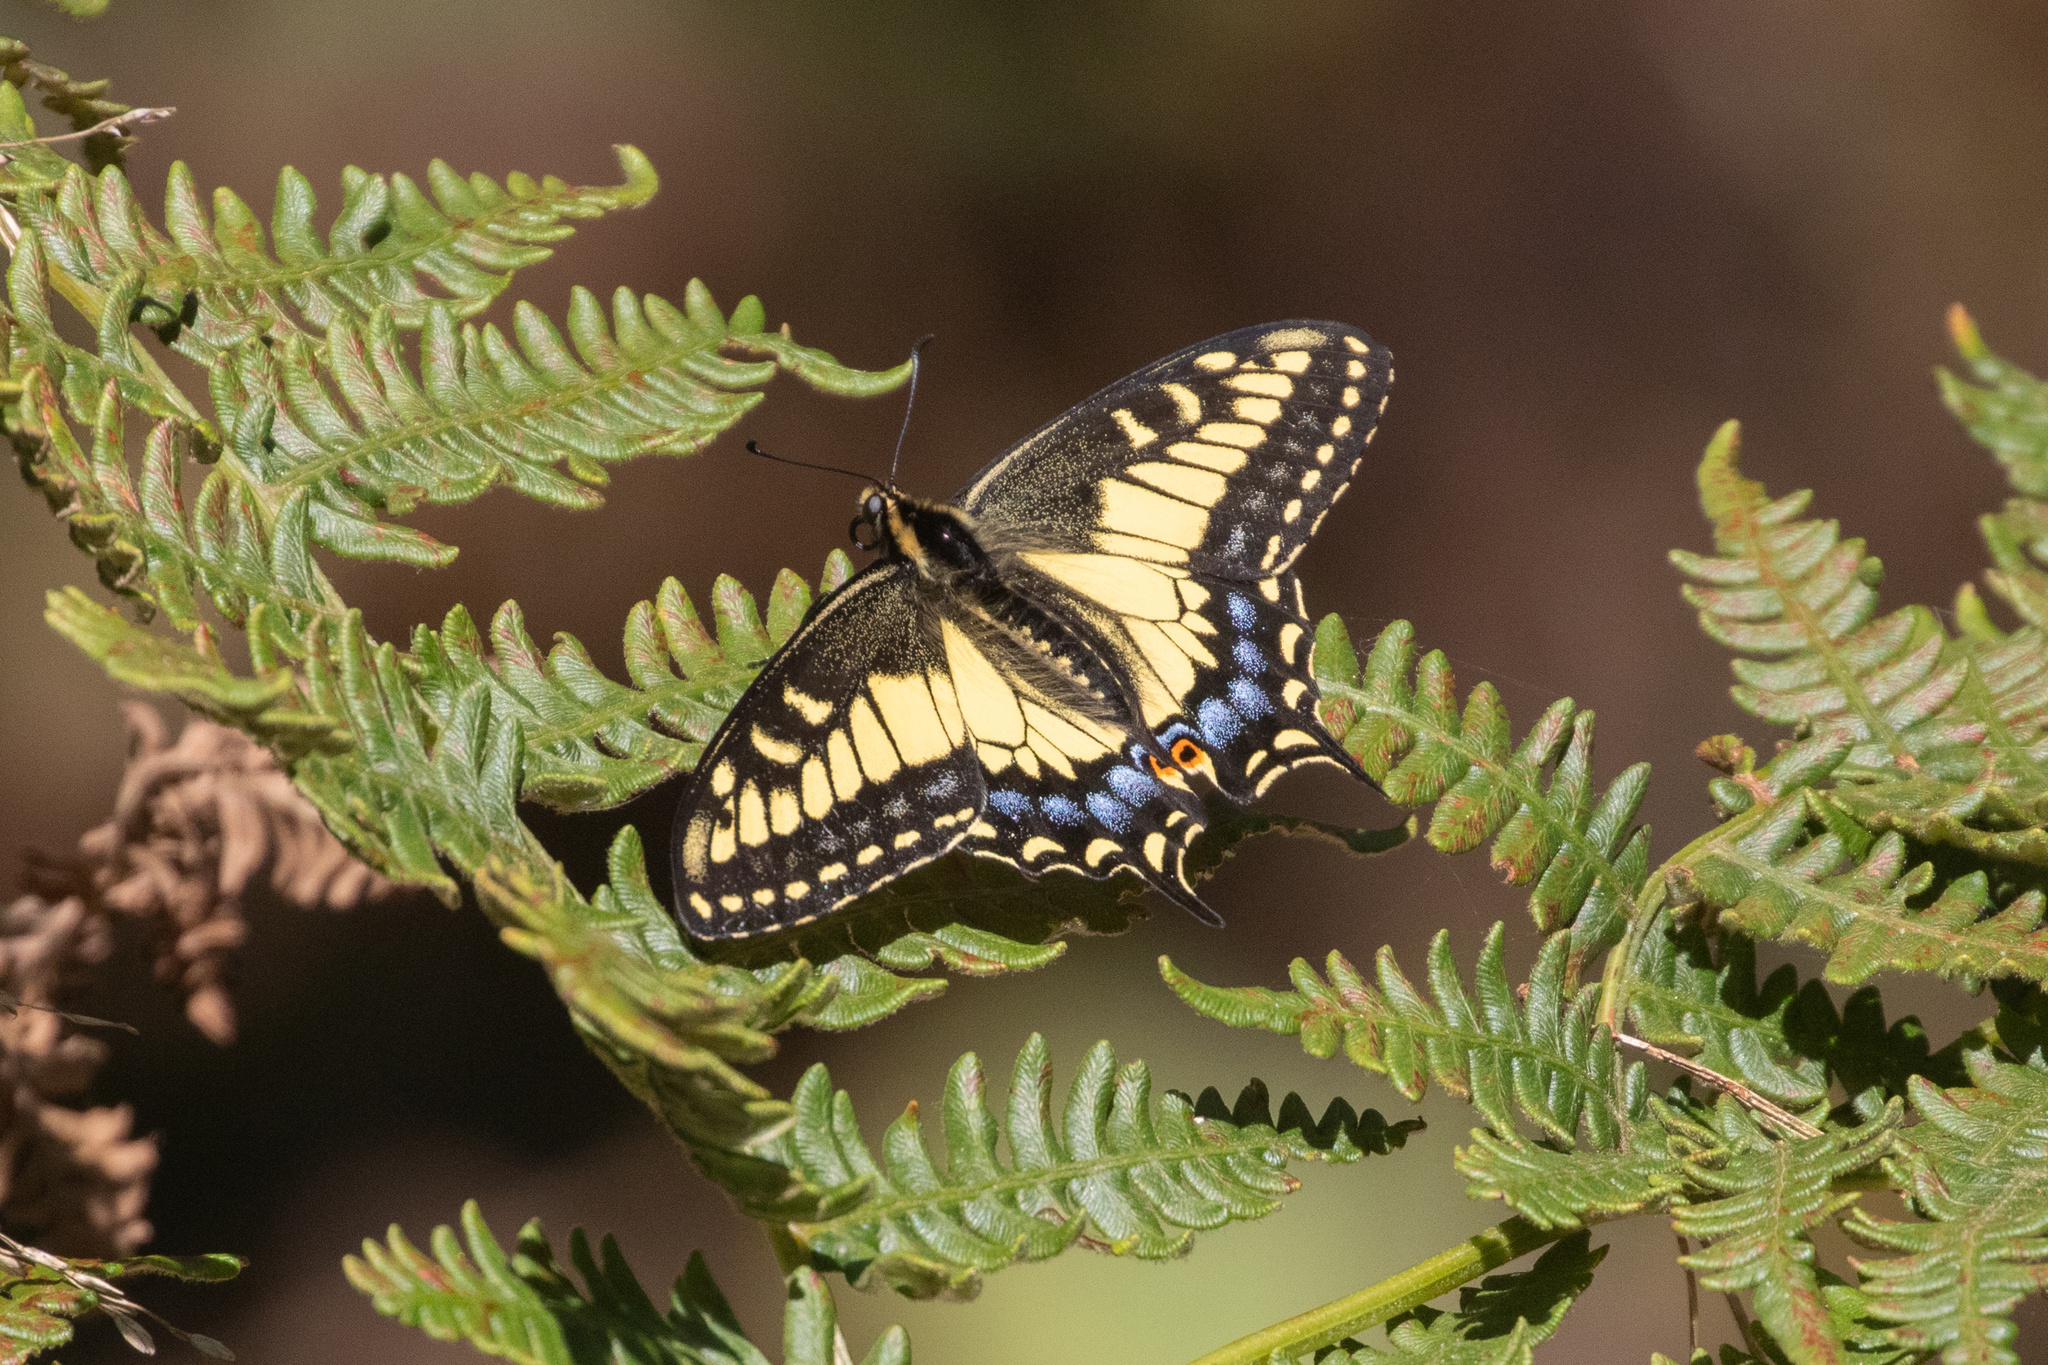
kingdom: Animalia
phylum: Arthropoda
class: Insecta
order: Lepidoptera
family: Papilionidae
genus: Papilio
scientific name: Papilio zelicaon
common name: Anise swallowtail
